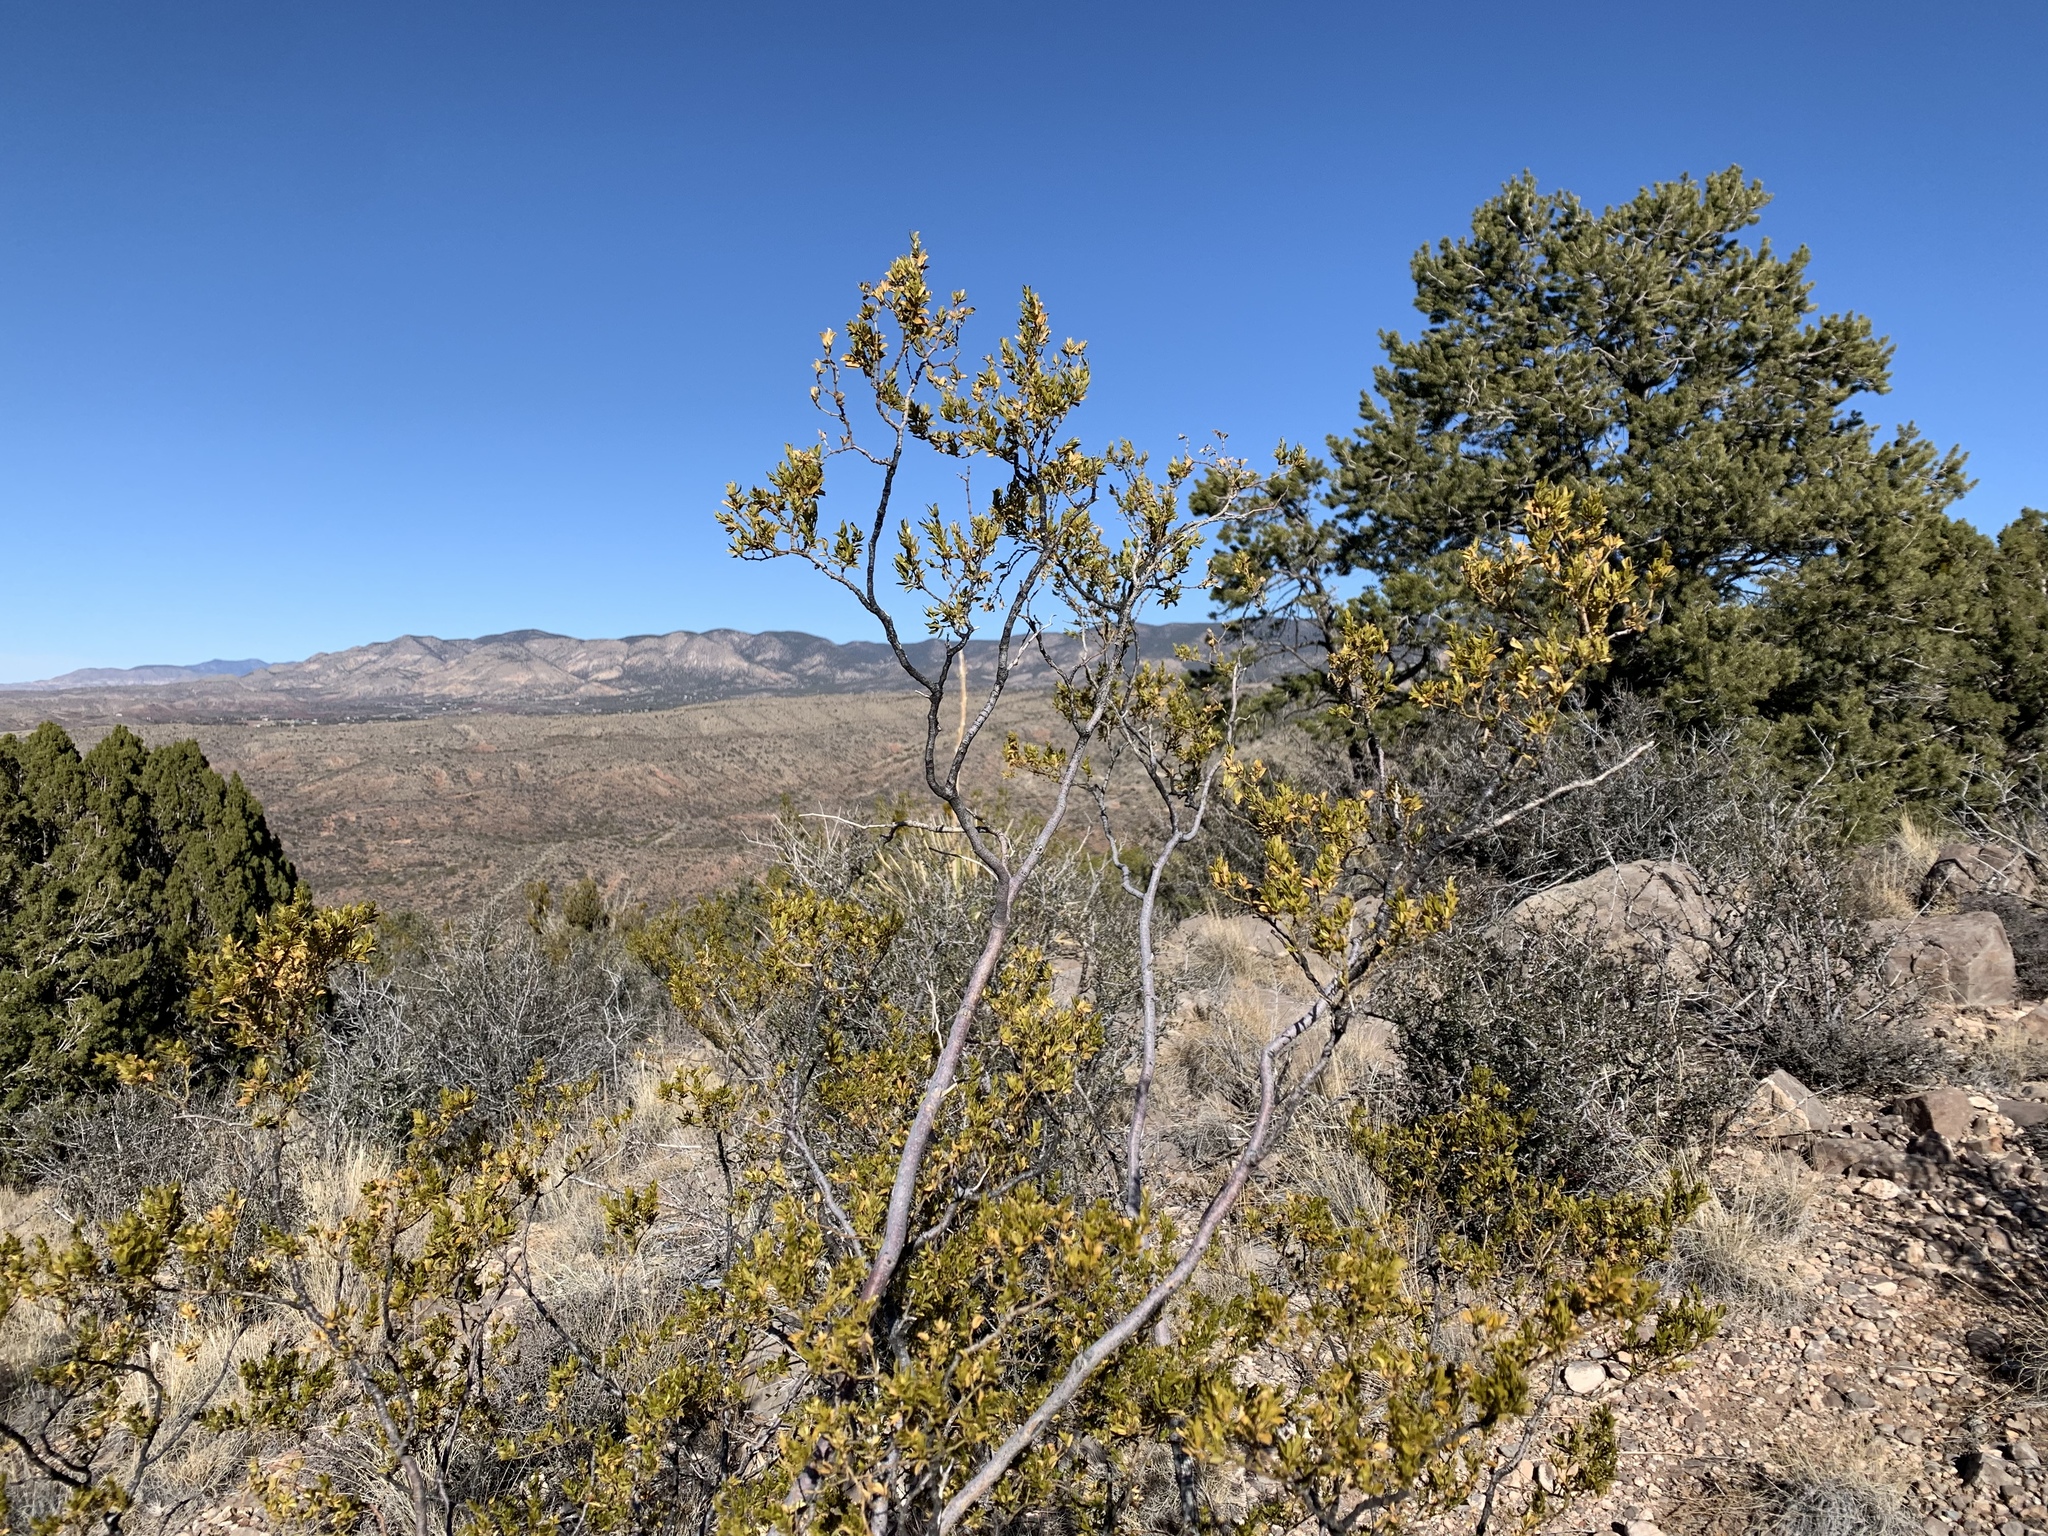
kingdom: Plantae
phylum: Tracheophyta
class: Magnoliopsida
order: Zygophyllales
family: Zygophyllaceae
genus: Larrea
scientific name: Larrea tridentata
